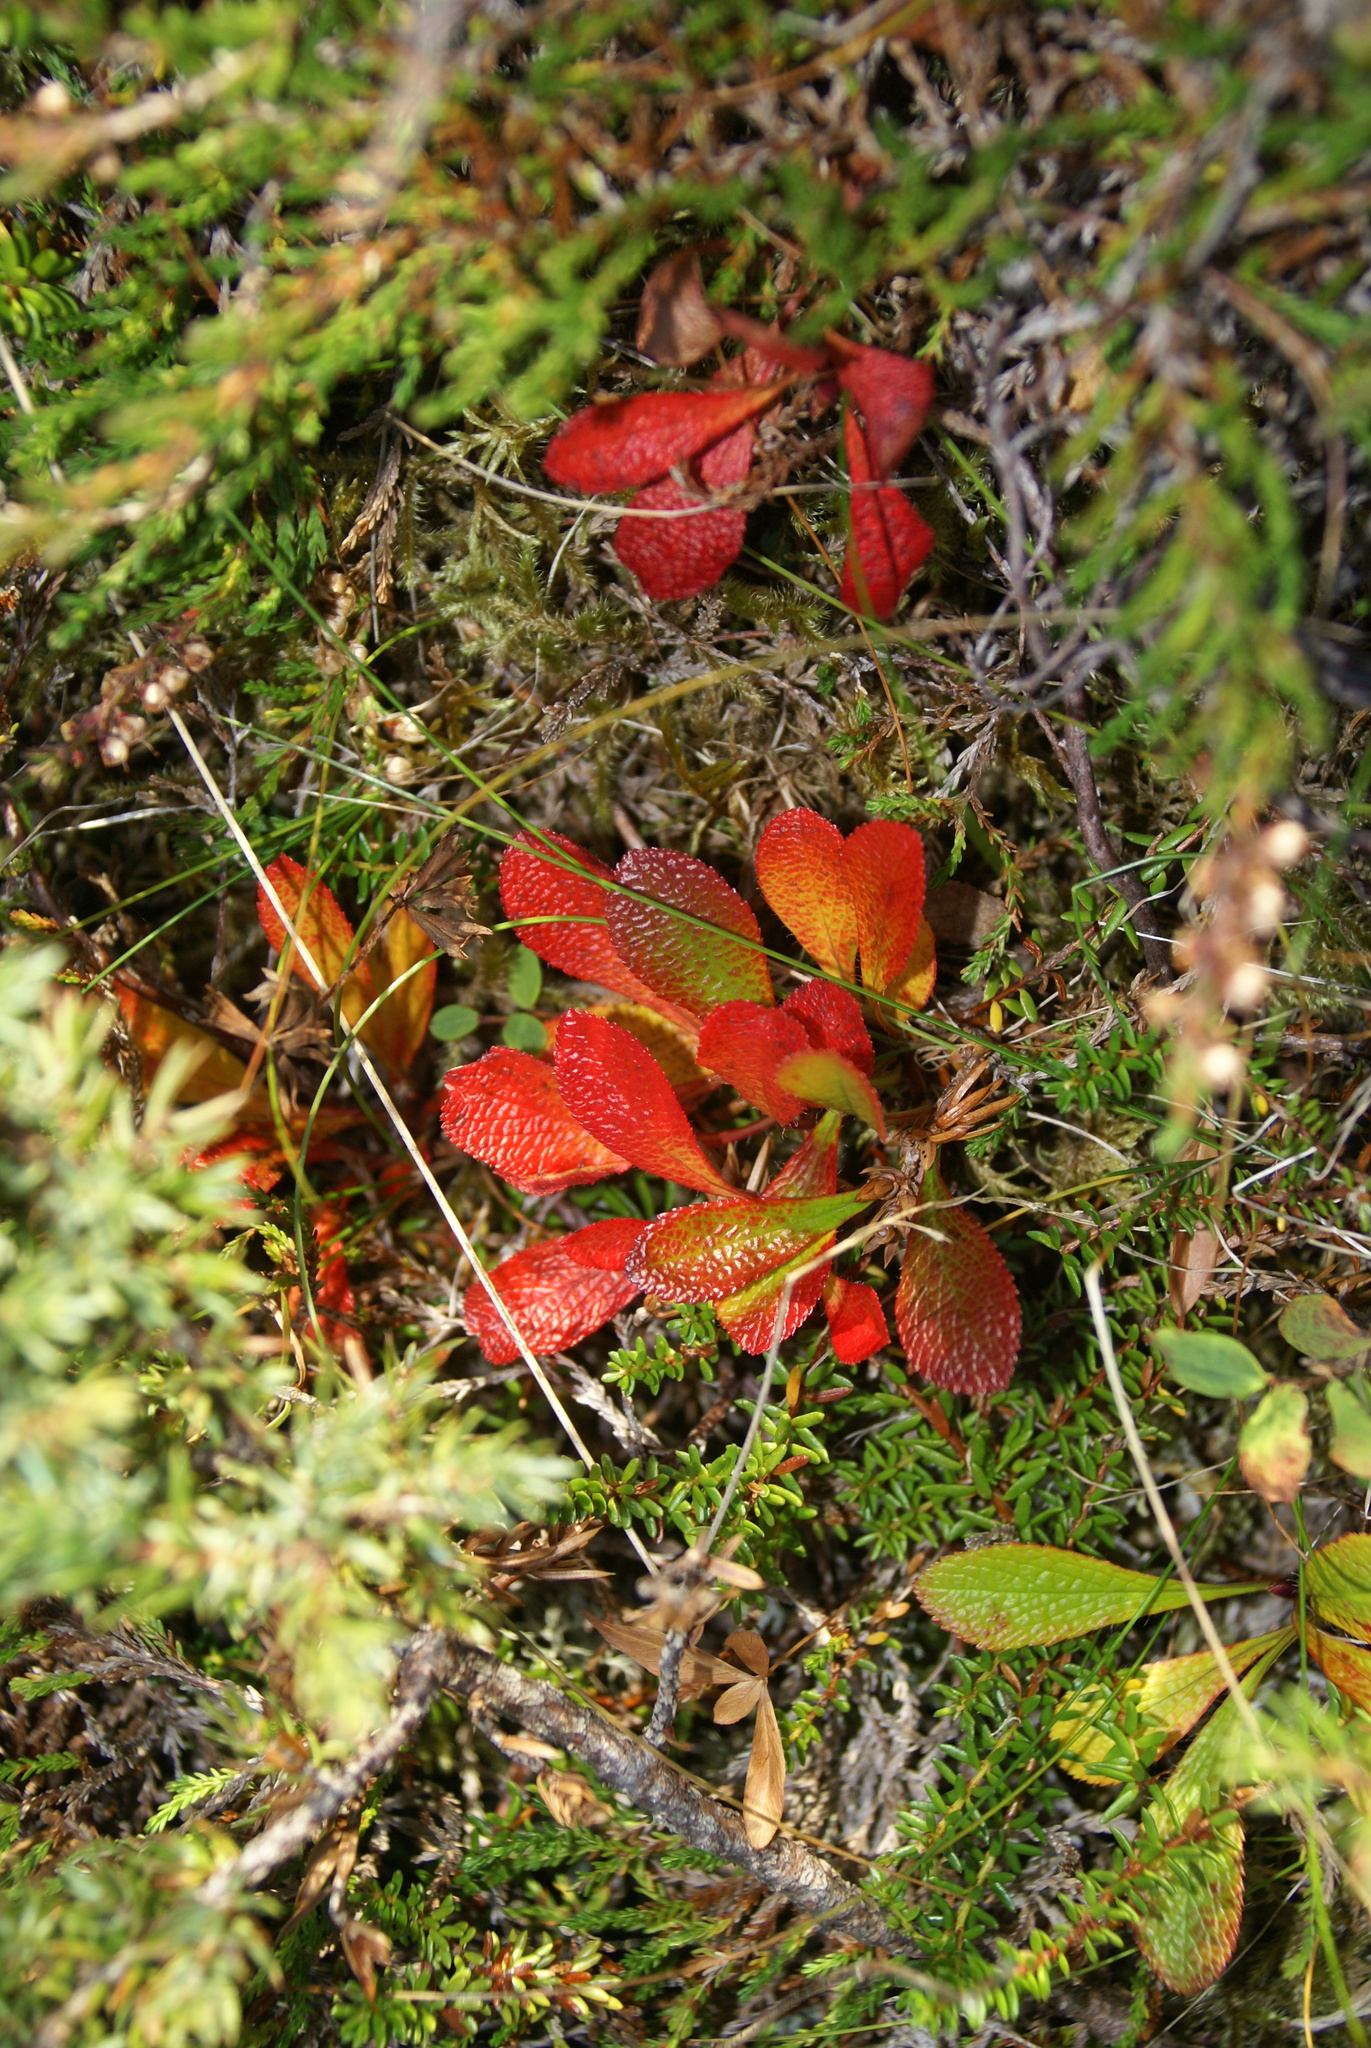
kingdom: Plantae
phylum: Tracheophyta
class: Magnoliopsida
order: Ericales
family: Ericaceae
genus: Arctostaphylos
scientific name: Arctostaphylos alpinus
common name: Alpine bearberry
